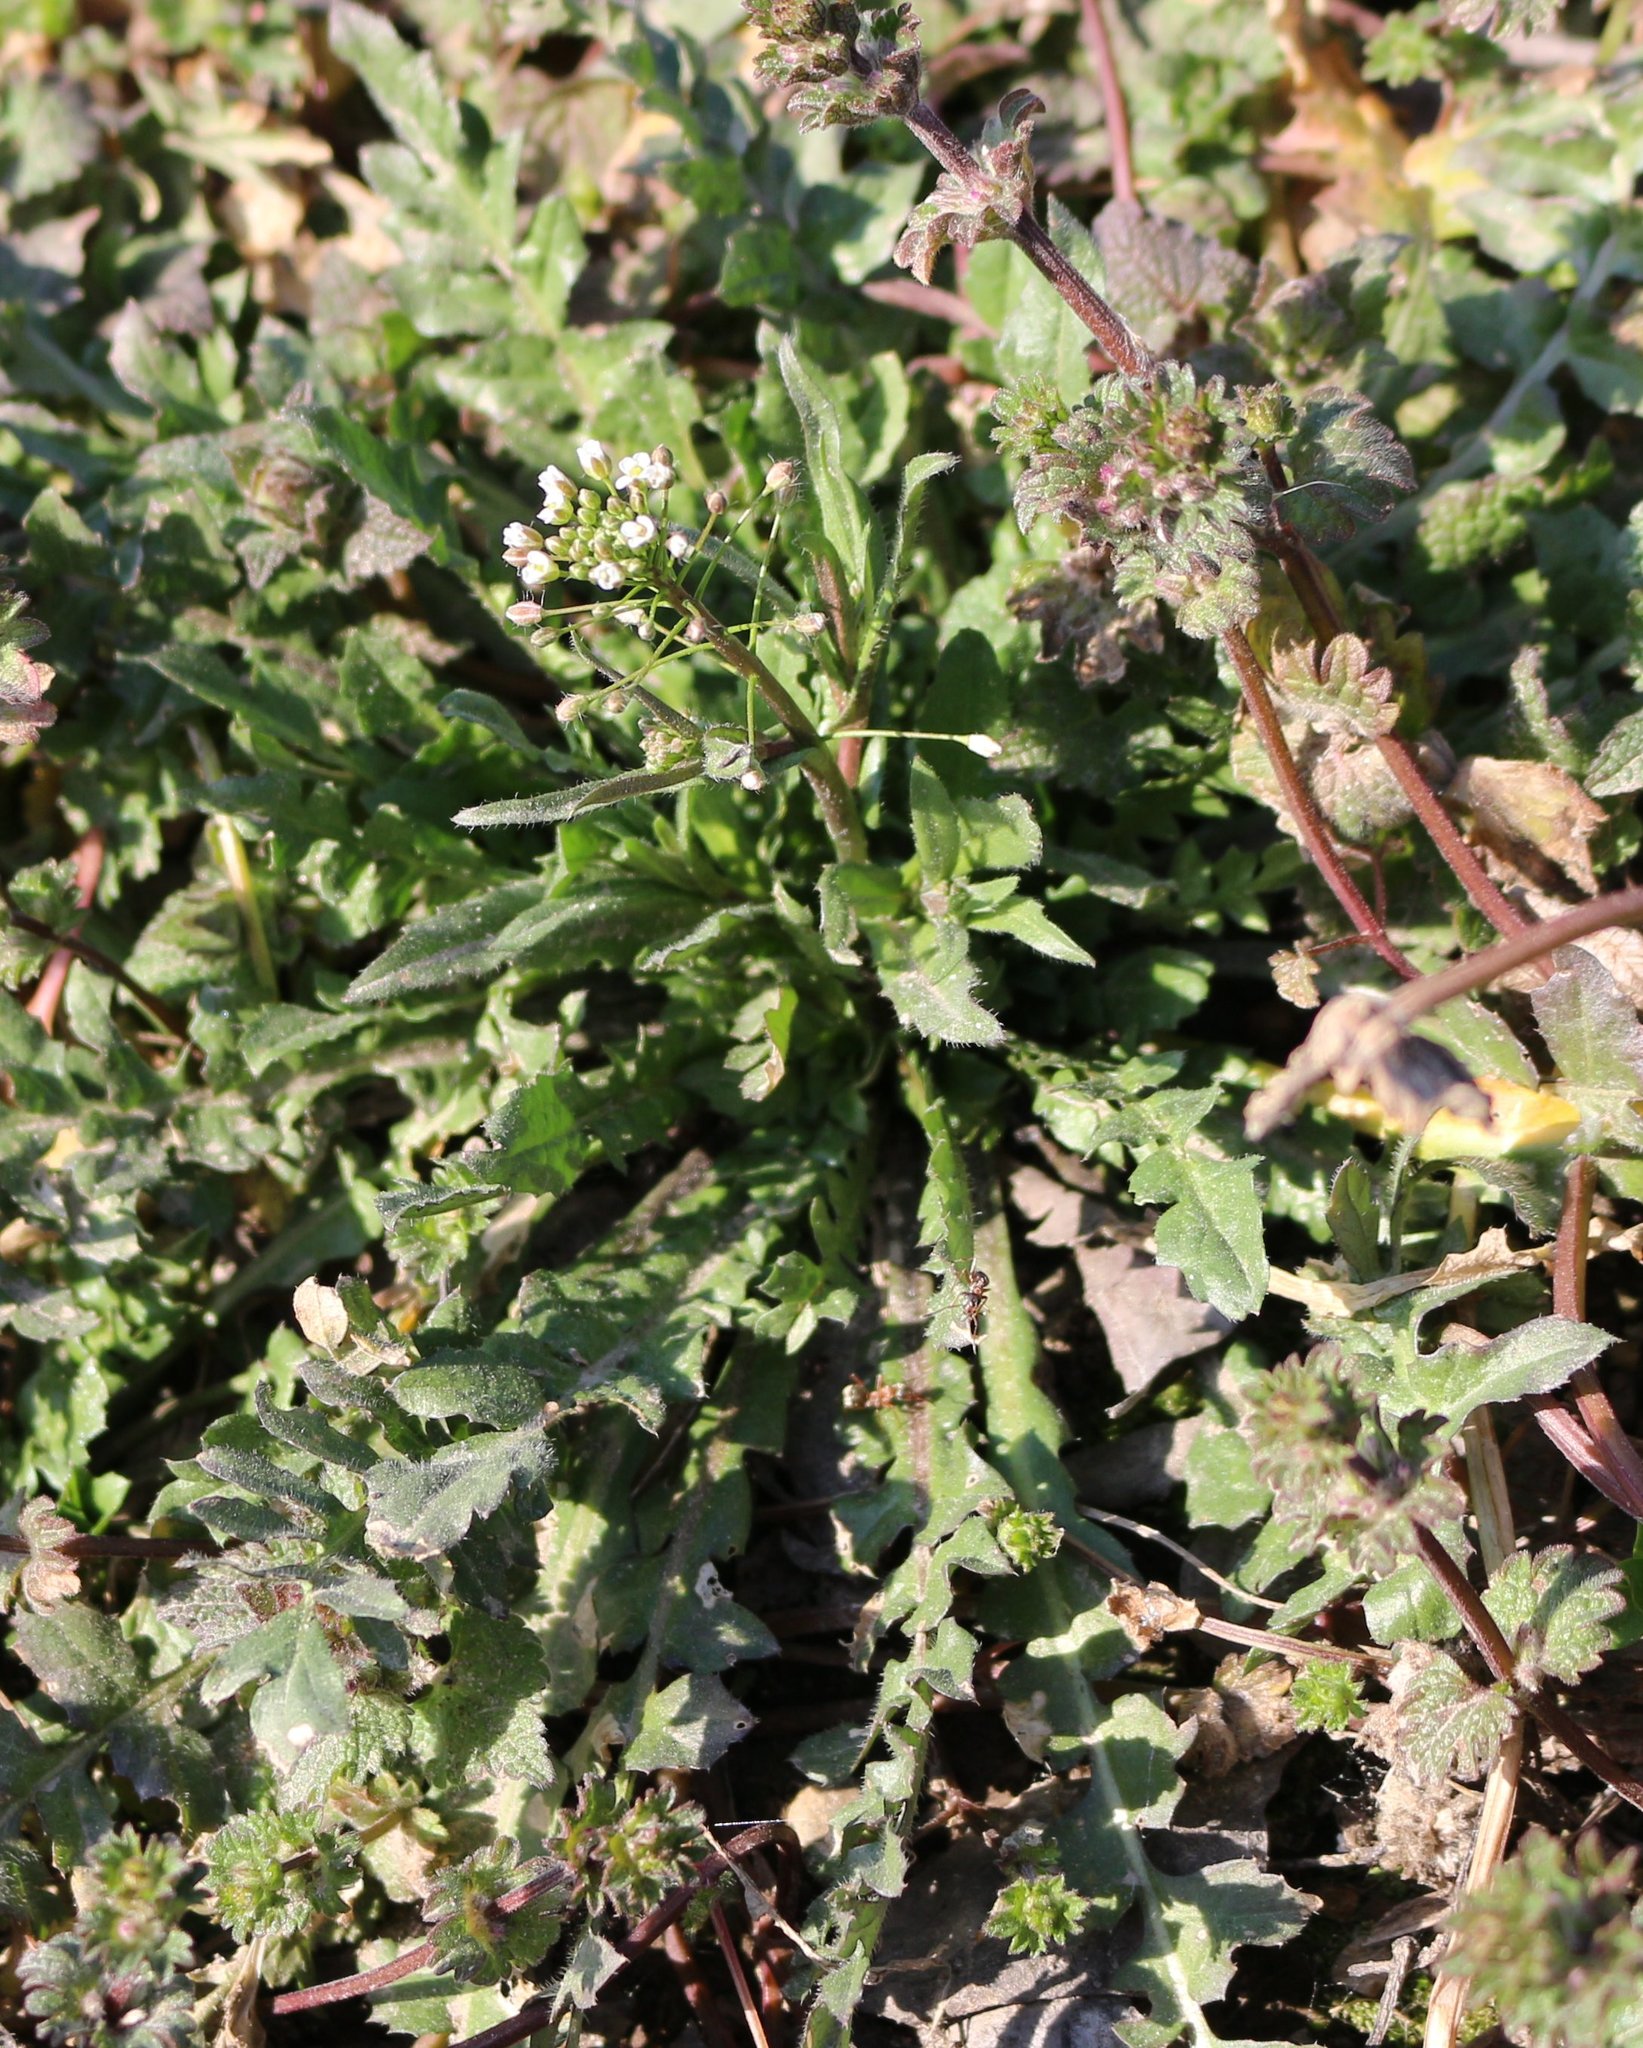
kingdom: Plantae
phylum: Tracheophyta
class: Magnoliopsida
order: Brassicales
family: Brassicaceae
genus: Capsella
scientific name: Capsella bursa-pastoris
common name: Shepherd's purse
